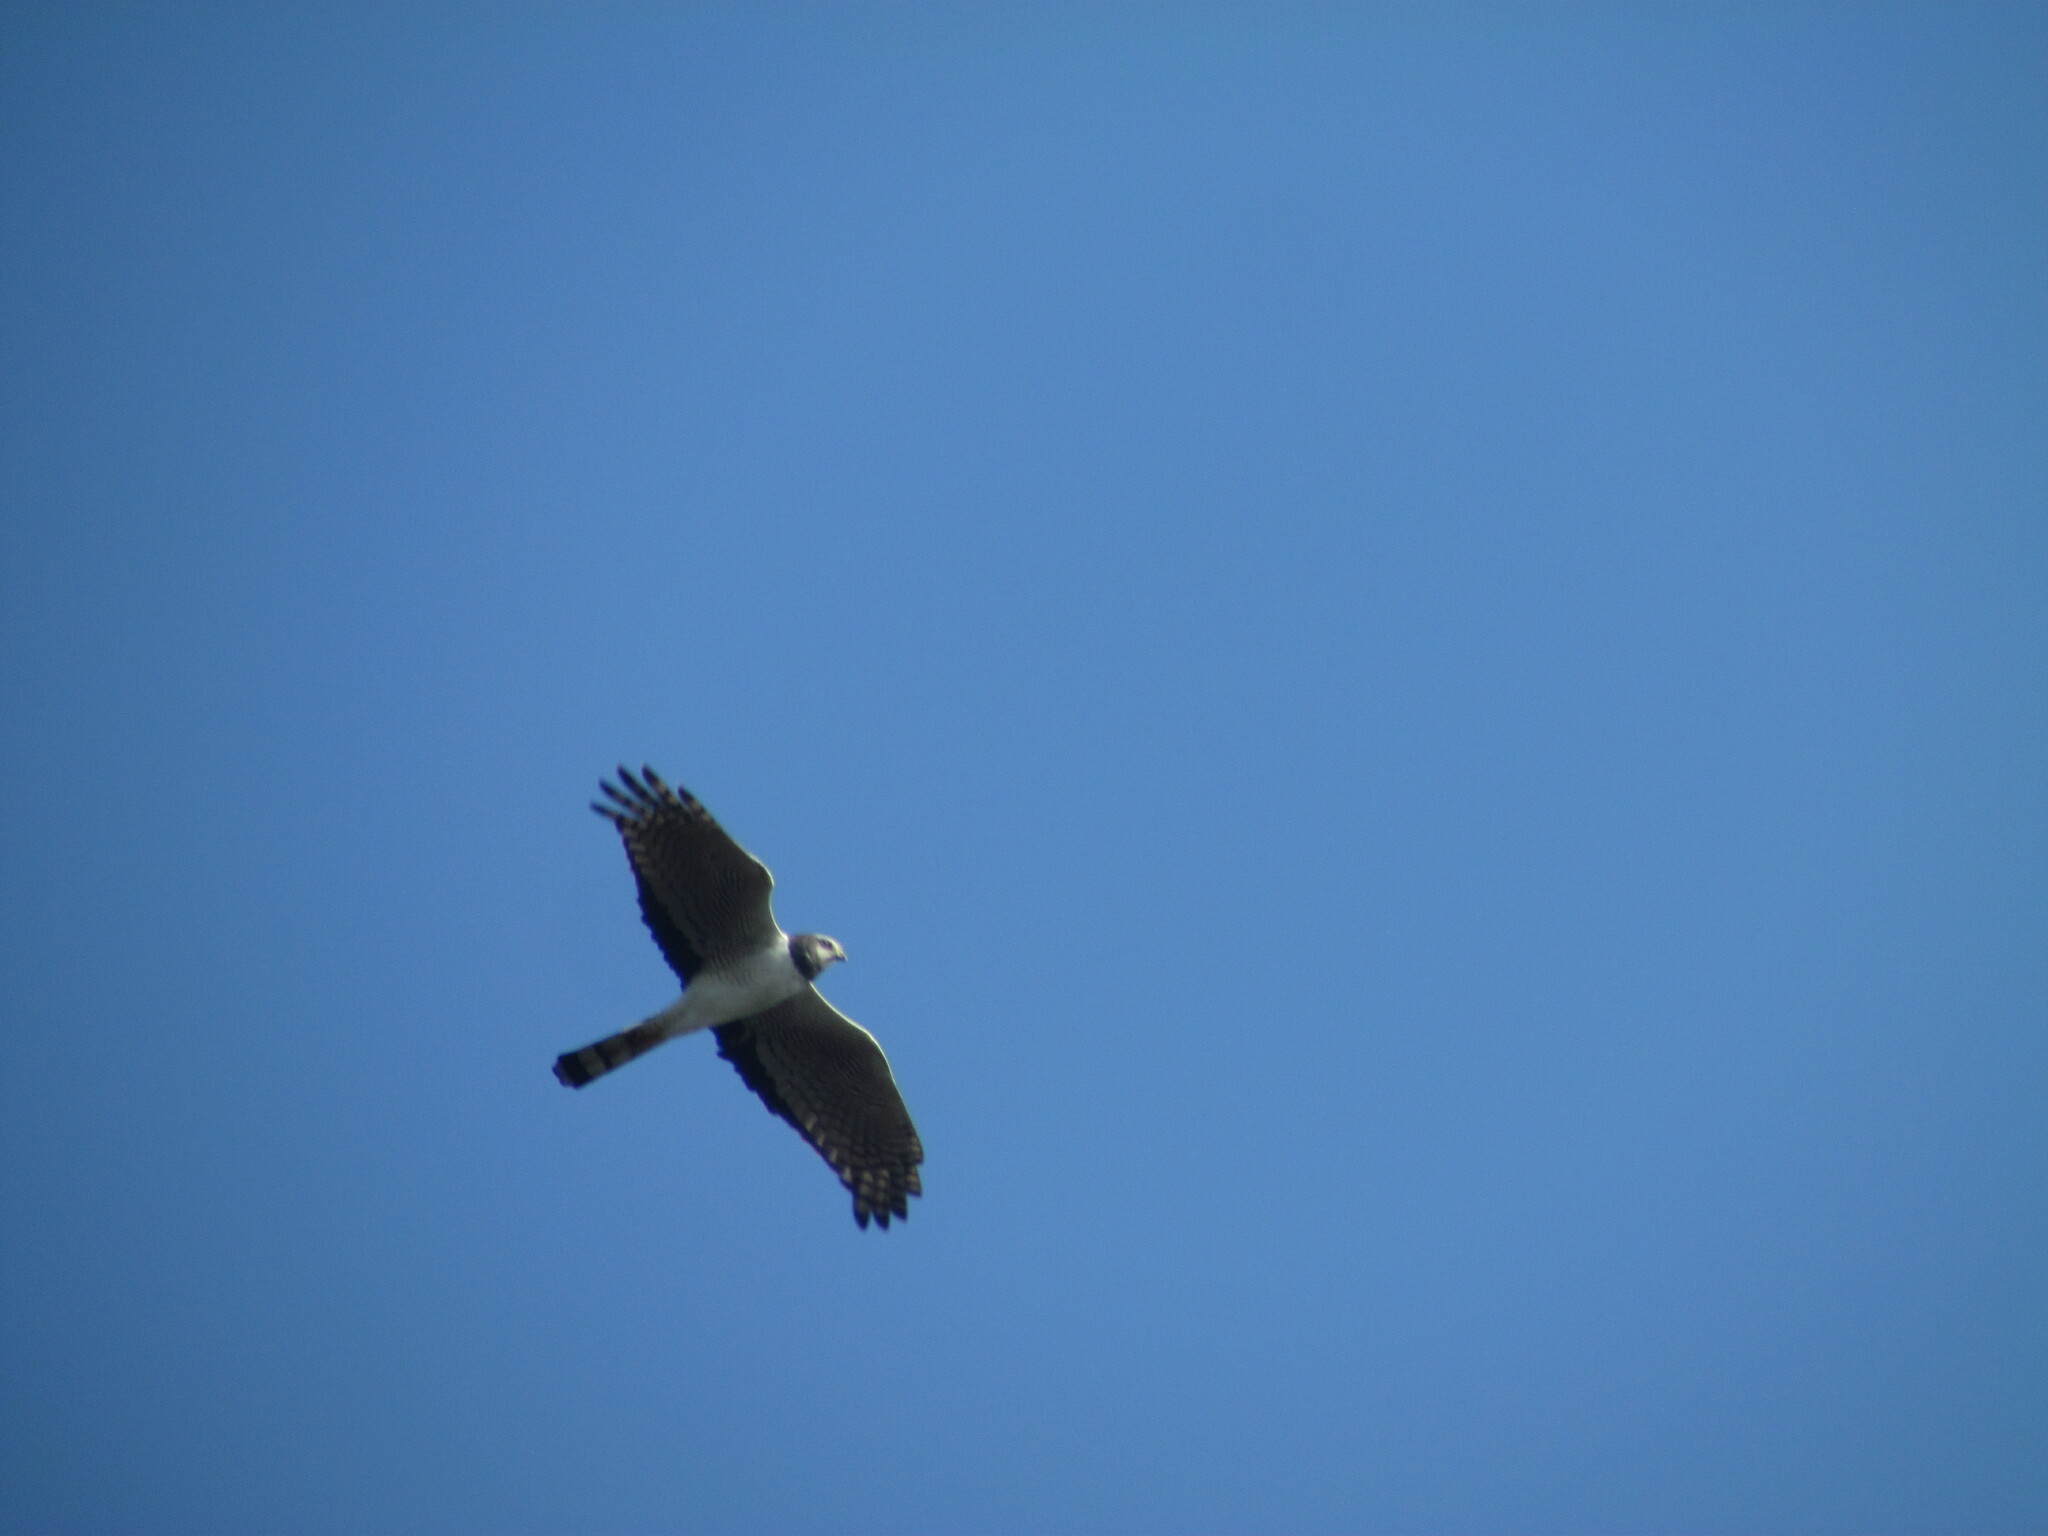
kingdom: Animalia
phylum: Chordata
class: Aves
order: Accipitriformes
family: Accipitridae
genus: Circus
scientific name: Circus buffoni
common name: Long-winged harrier
